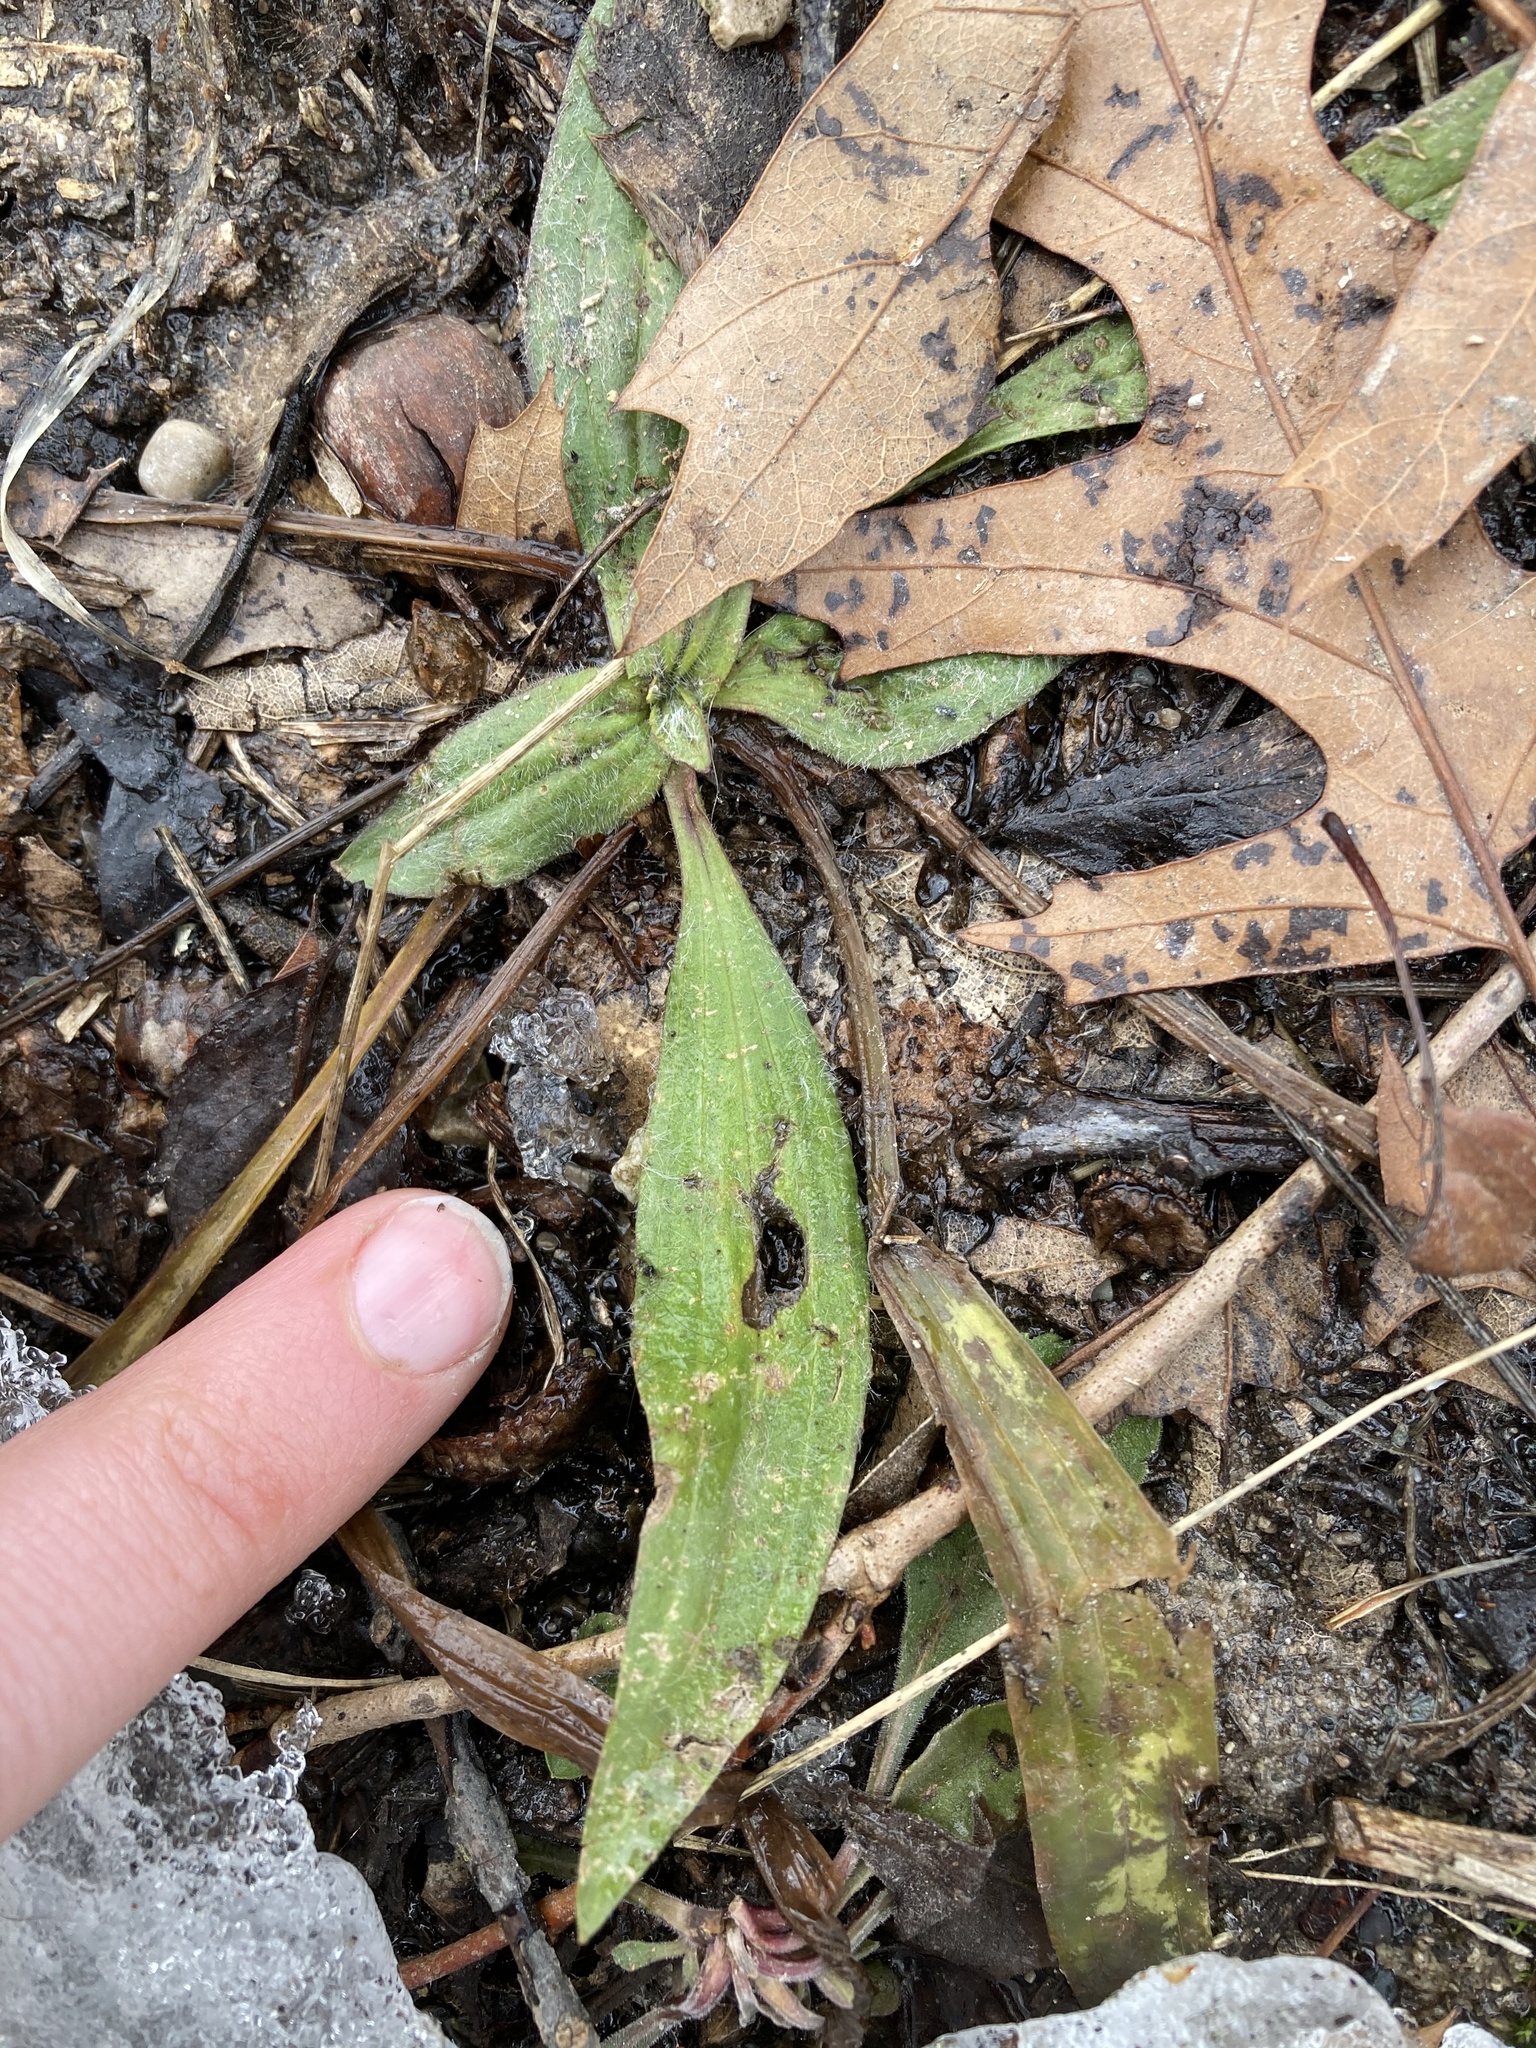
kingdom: Plantae
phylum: Tracheophyta
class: Magnoliopsida
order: Lamiales
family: Plantaginaceae
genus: Plantago
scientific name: Plantago lanceolata
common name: Ribwort plantain
